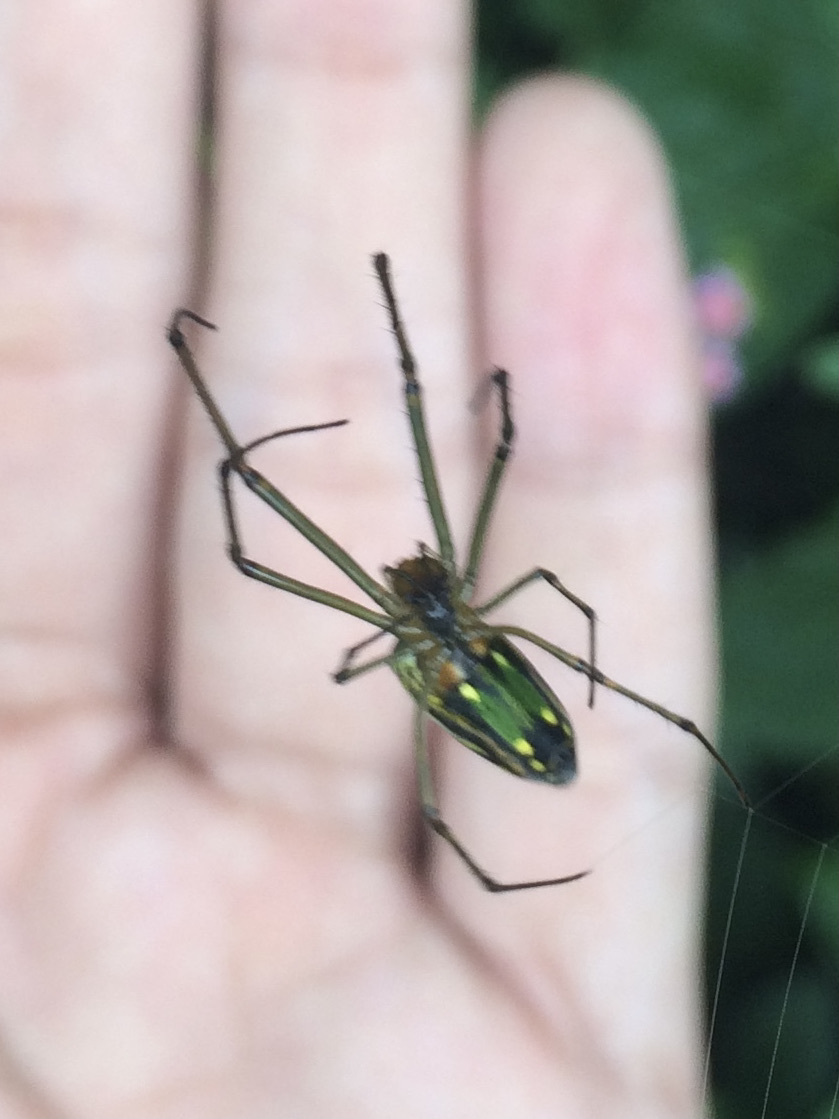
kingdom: Animalia
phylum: Arthropoda
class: Arachnida
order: Araneae
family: Tetragnathidae
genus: Leucauge
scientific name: Leucauge decorata
